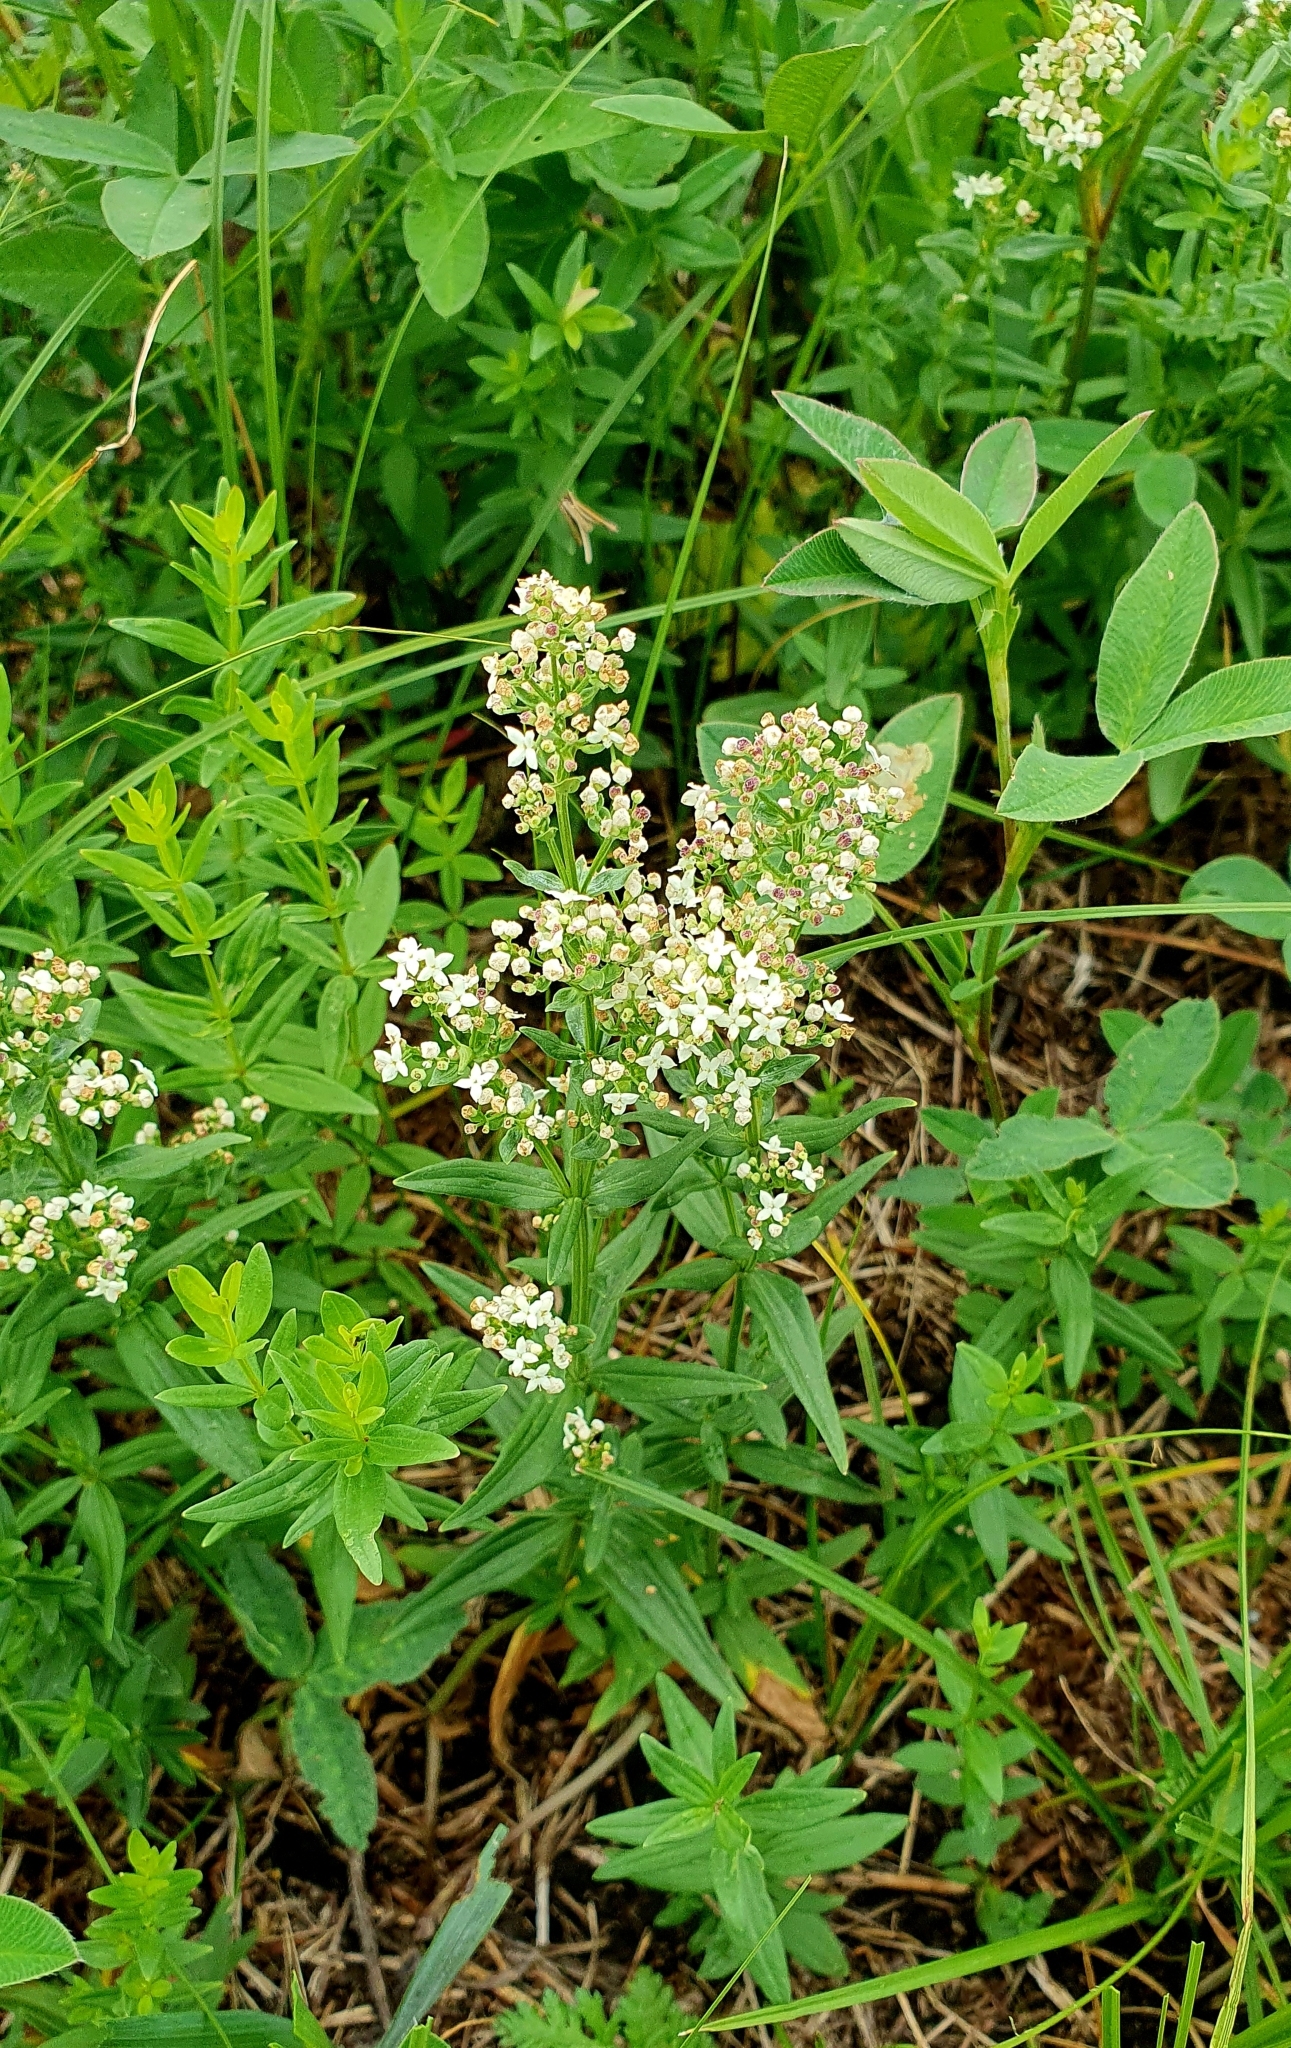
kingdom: Plantae
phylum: Tracheophyta
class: Magnoliopsida
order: Gentianales
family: Rubiaceae
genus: Galium
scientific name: Galium boreale
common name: Northern bedstraw
